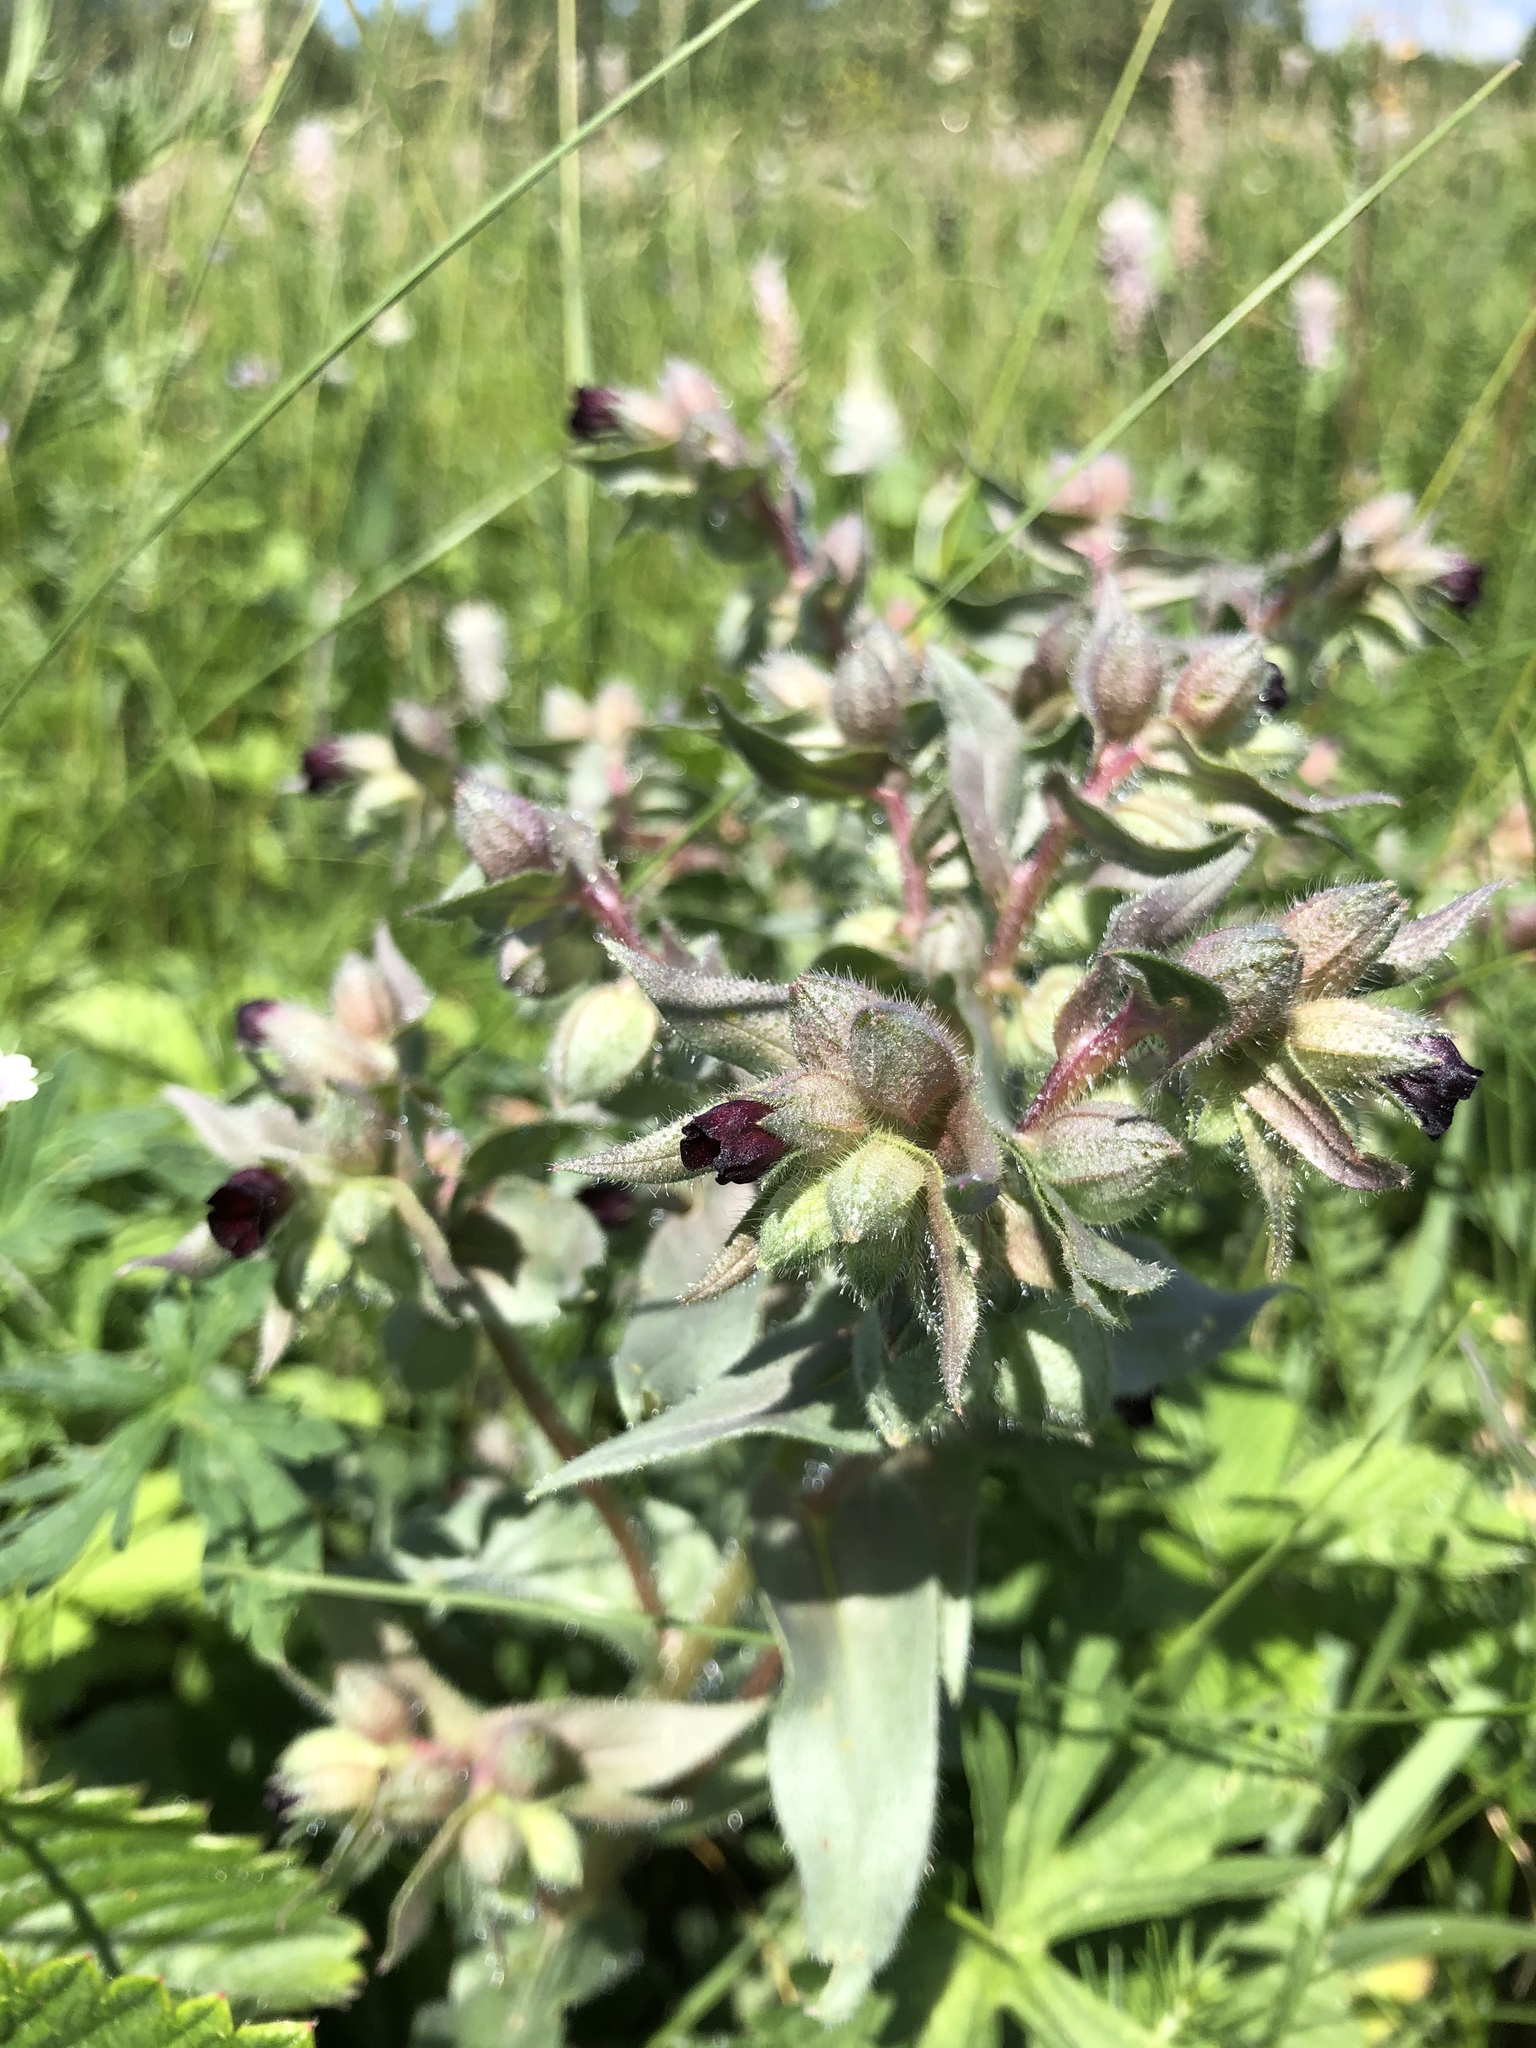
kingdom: Plantae
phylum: Tracheophyta
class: Magnoliopsida
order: Boraginales
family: Boraginaceae
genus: Nonea
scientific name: Nonea pulla
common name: Brown nonea
